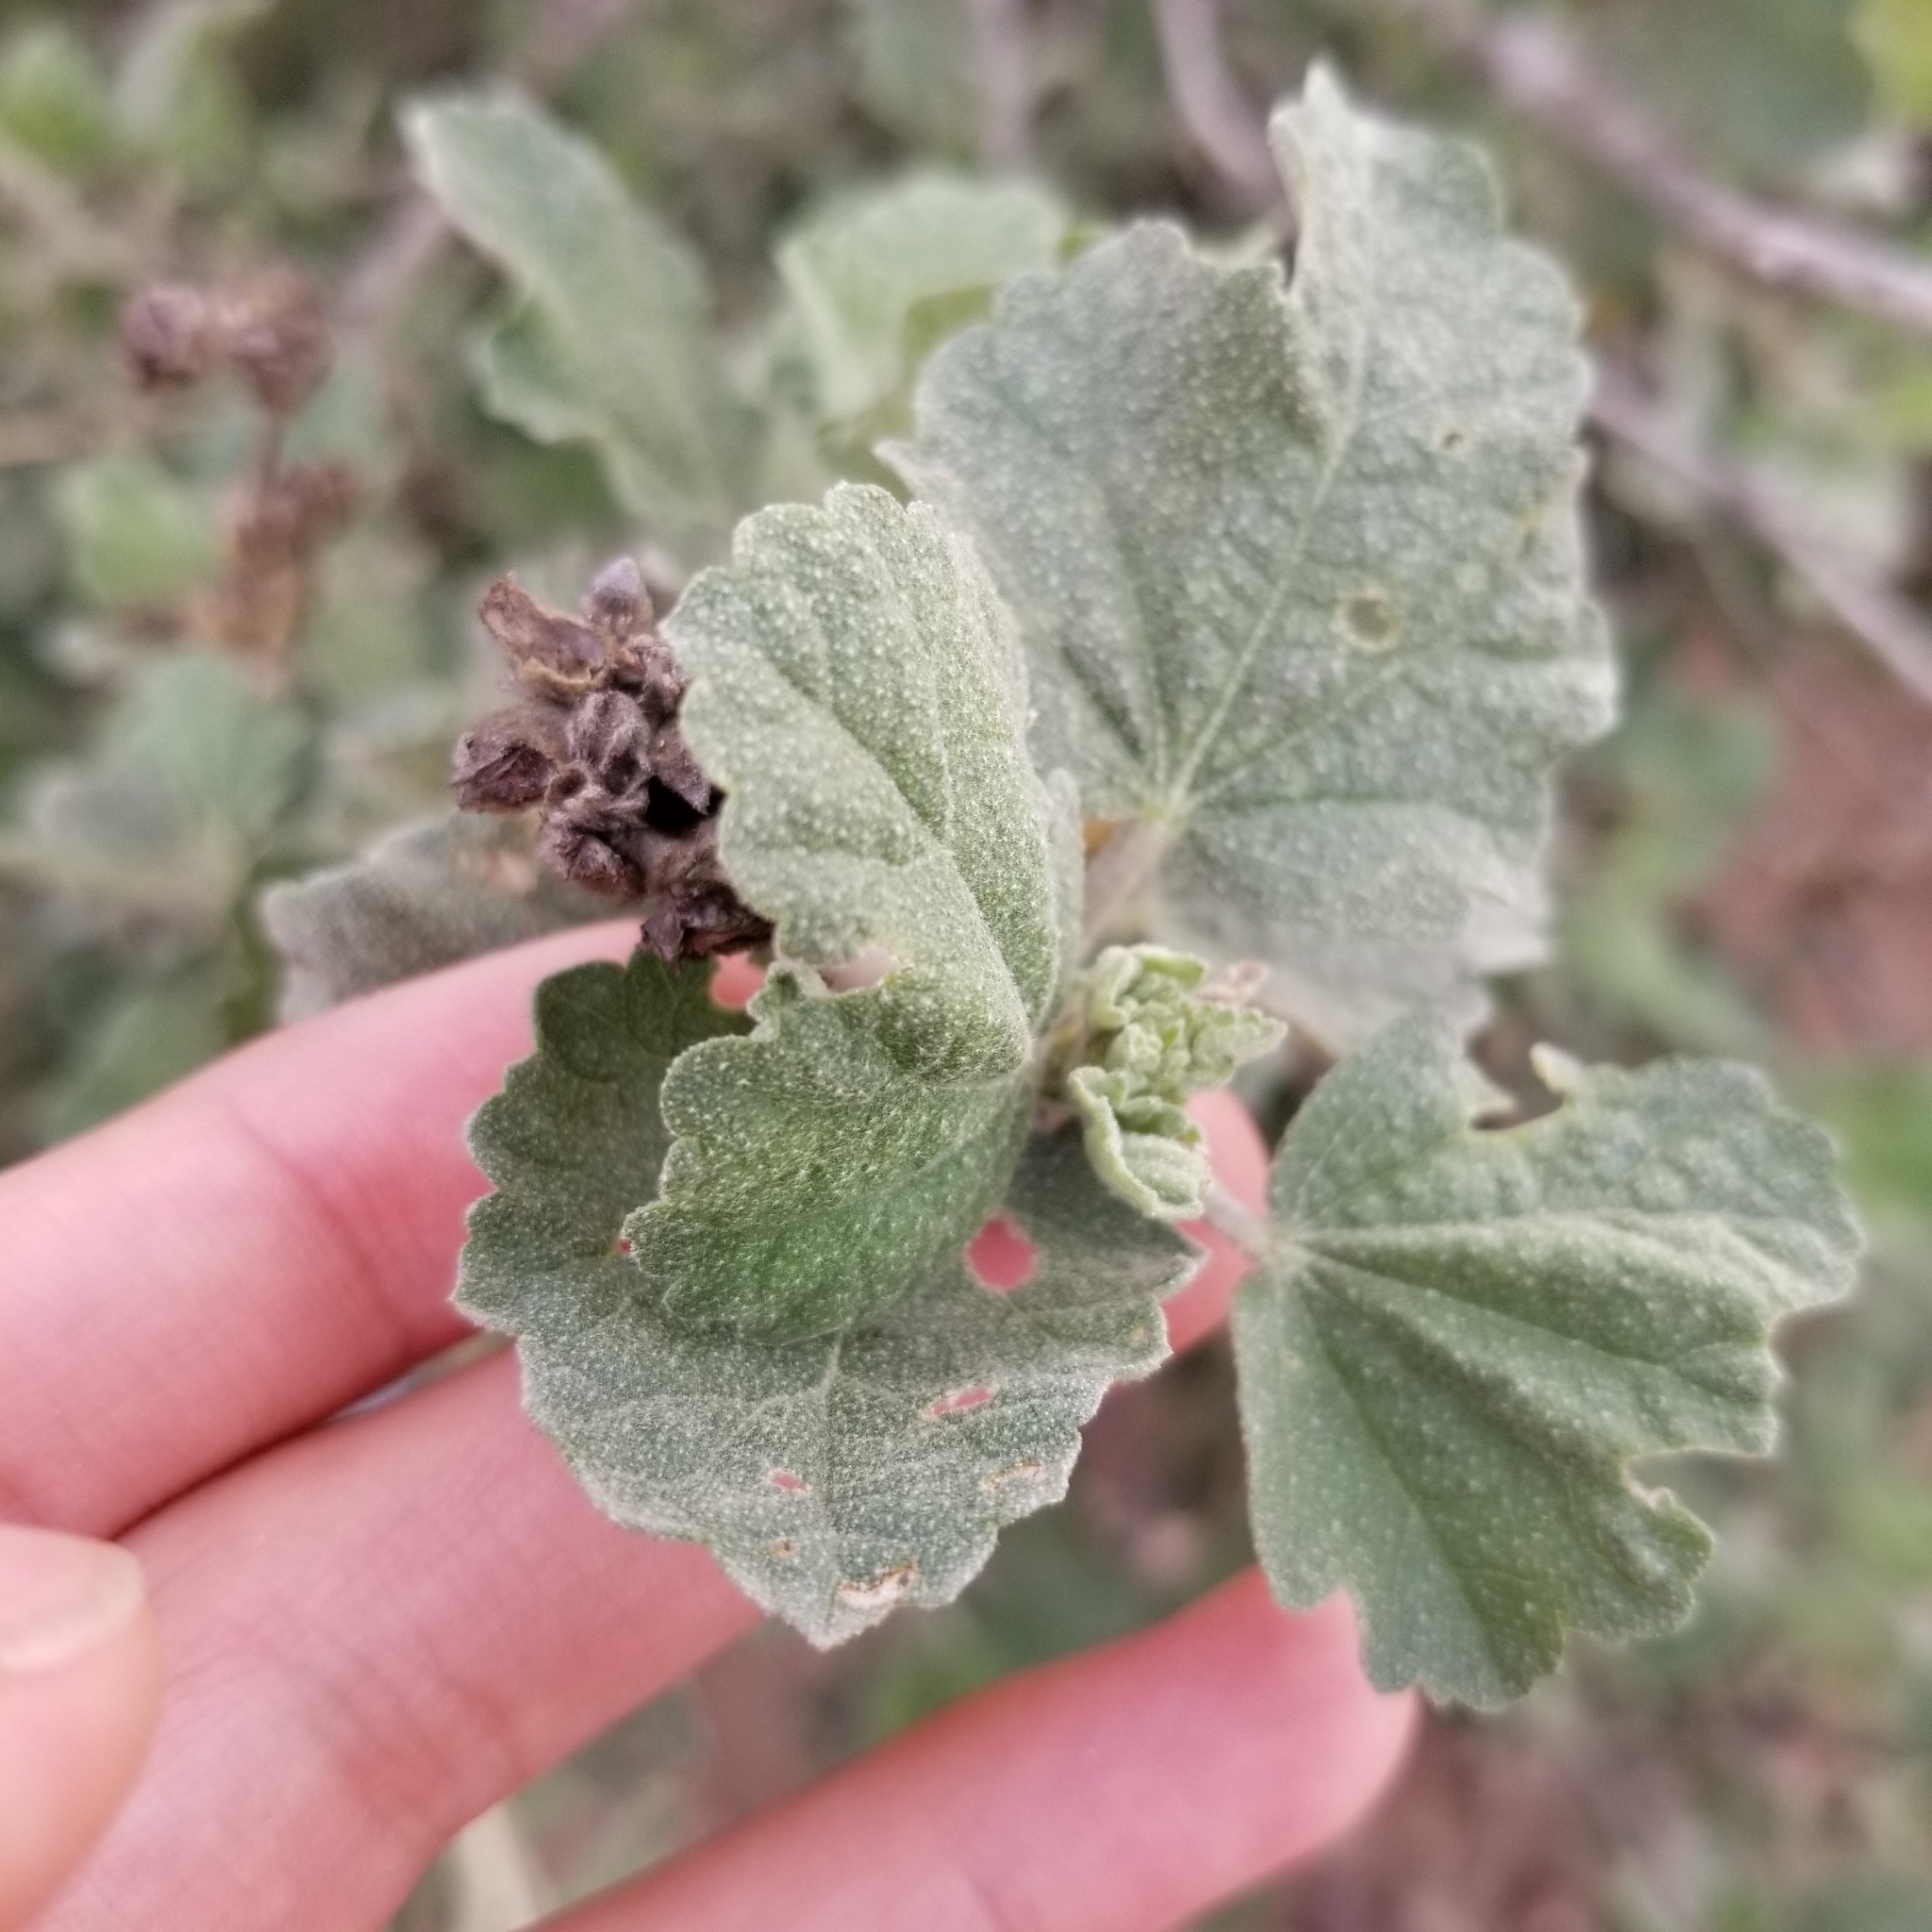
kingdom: Plantae
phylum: Tracheophyta
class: Magnoliopsida
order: Malvales
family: Malvaceae
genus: Malacothamnus
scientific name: Malacothamnus fasciculatus
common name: Sant cruz island bush-mallow
